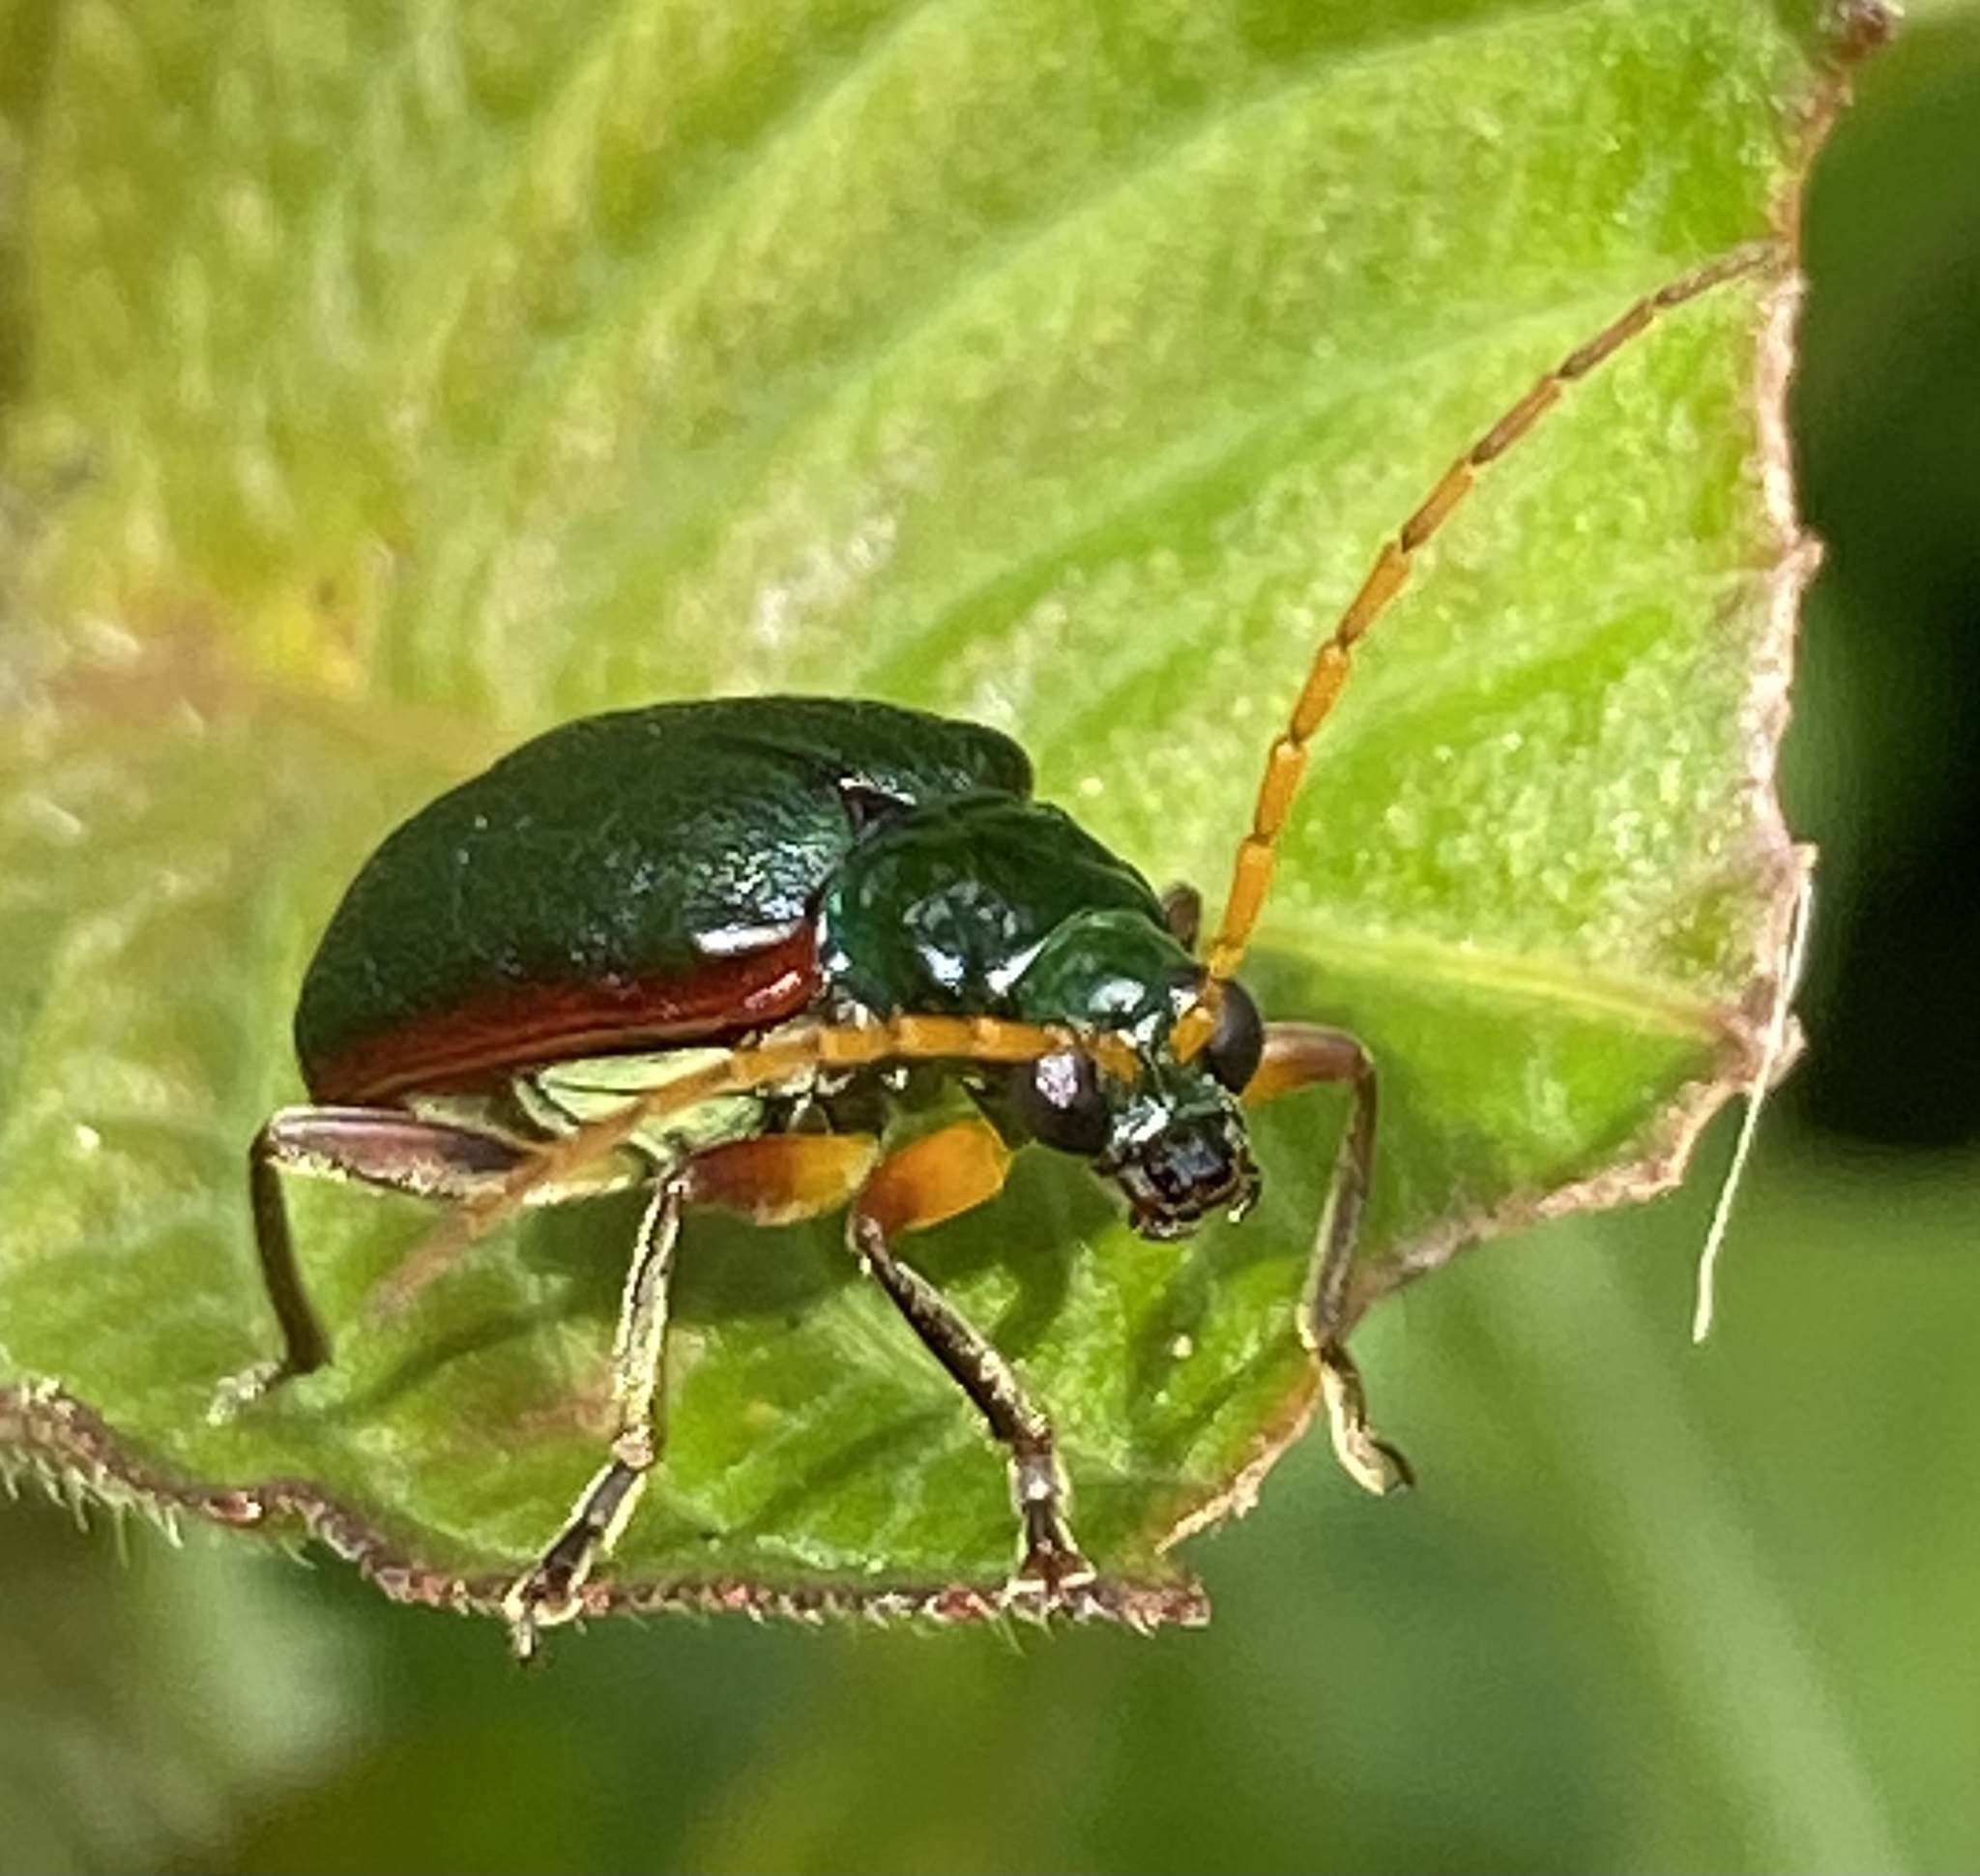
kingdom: Animalia
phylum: Arthropoda
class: Insecta
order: Coleoptera
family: Chrysomelidae
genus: Cochabamba
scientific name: Cochabamba
